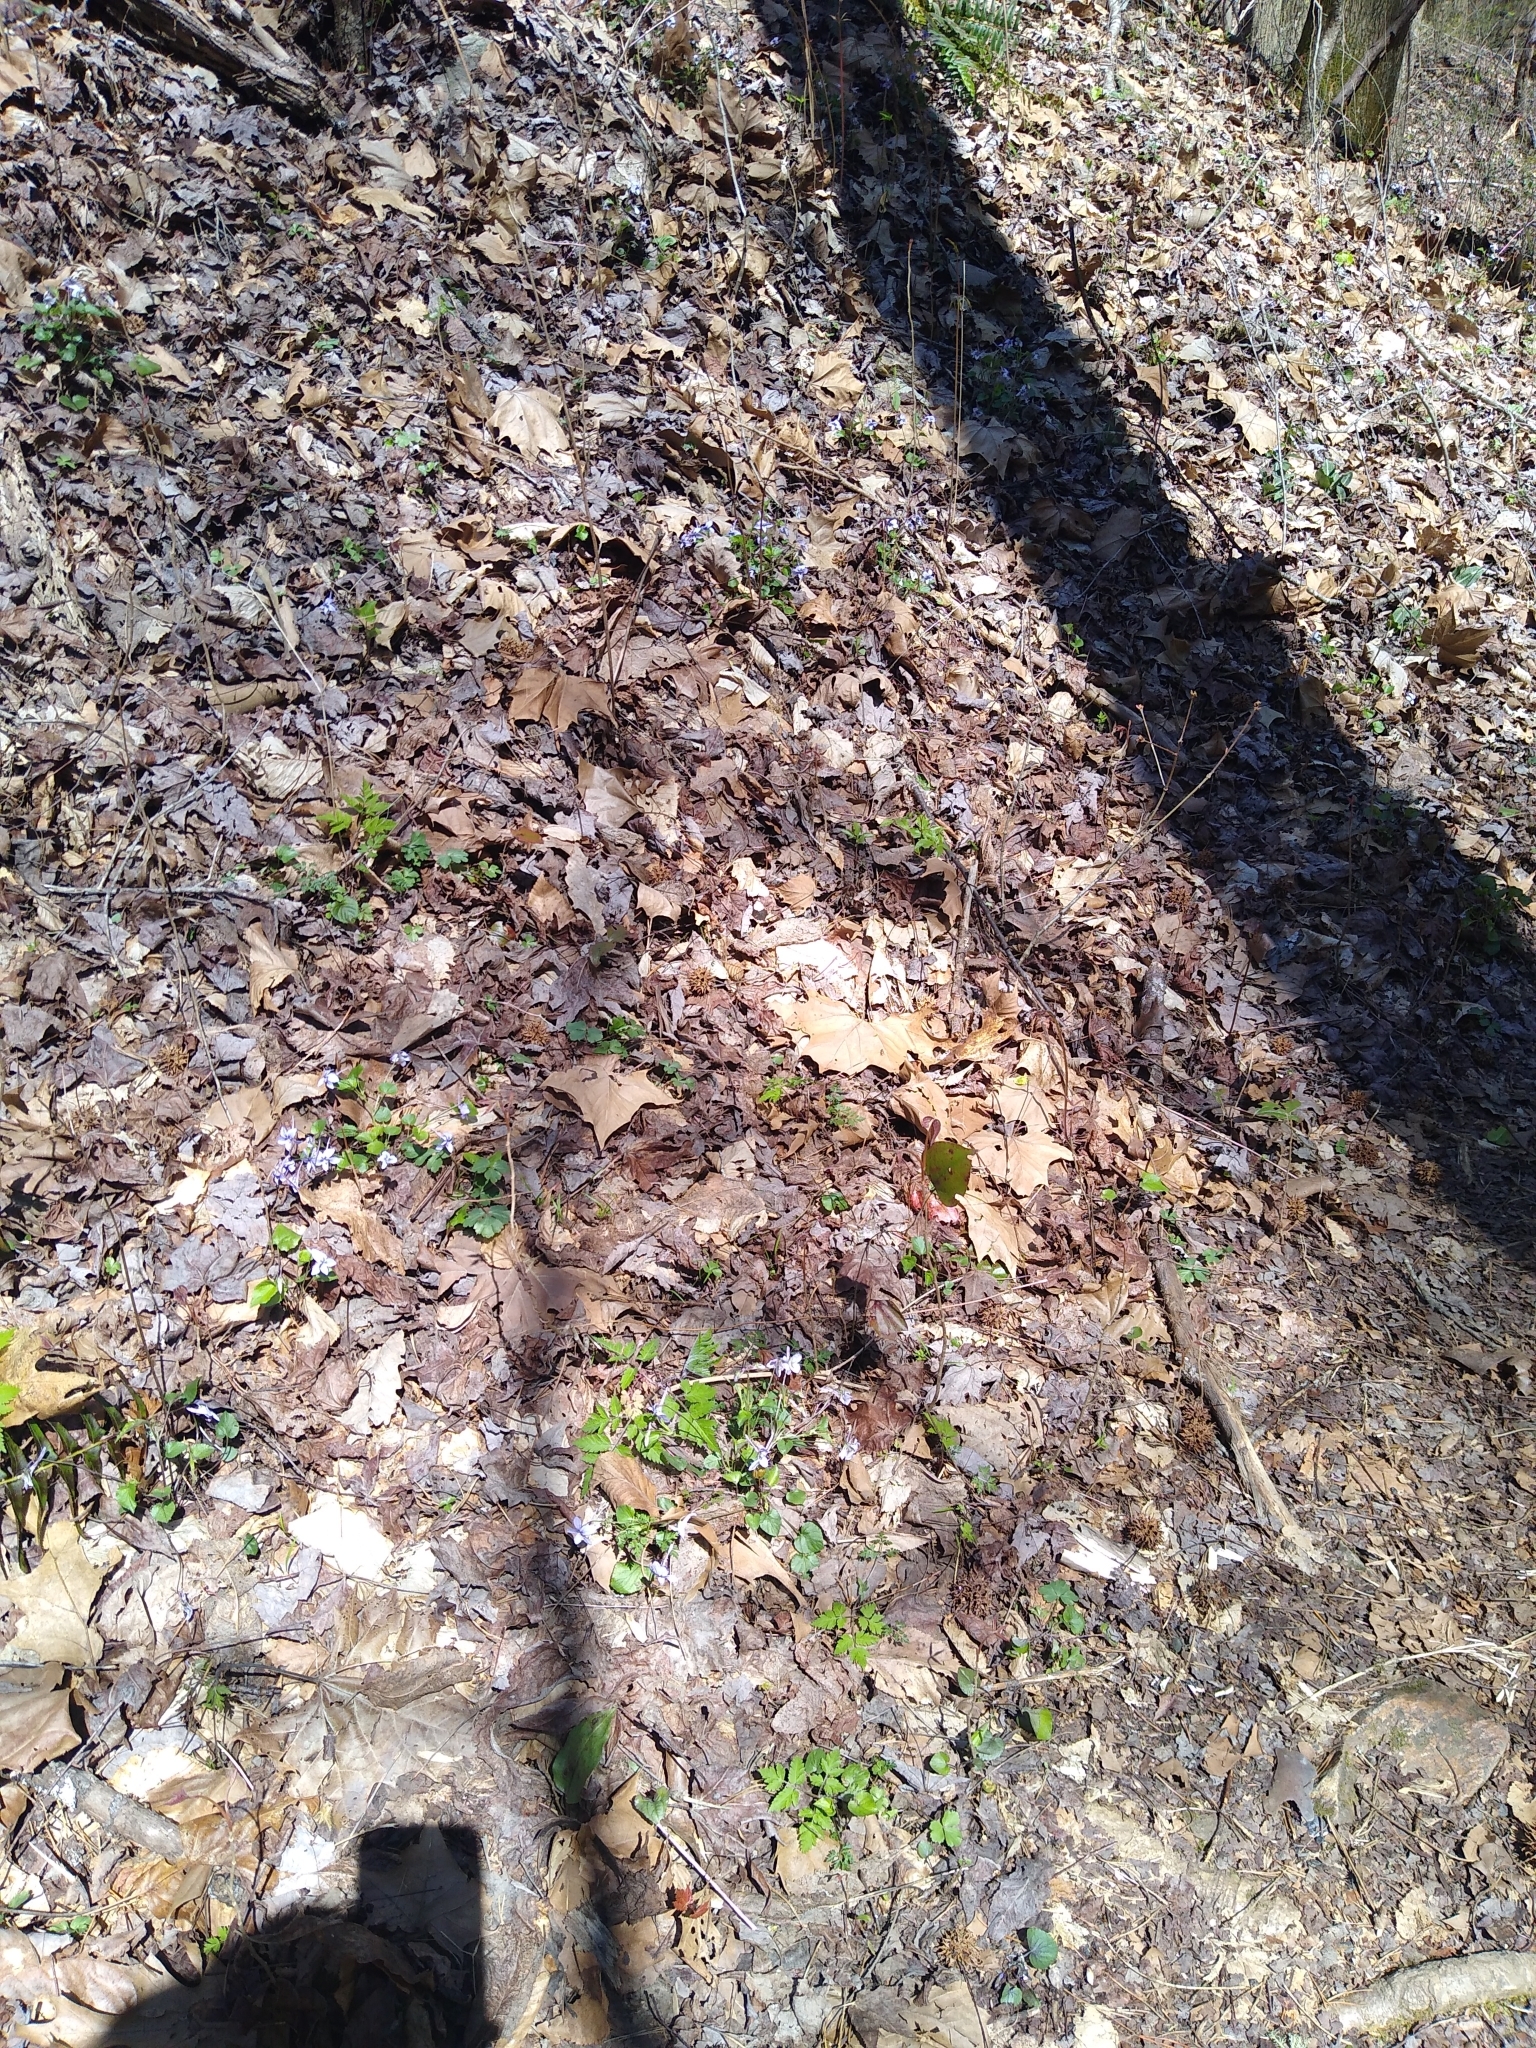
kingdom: Plantae
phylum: Tracheophyta
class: Magnoliopsida
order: Malpighiales
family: Violaceae
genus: Viola
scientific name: Viola rostrata
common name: Long-spur violet
